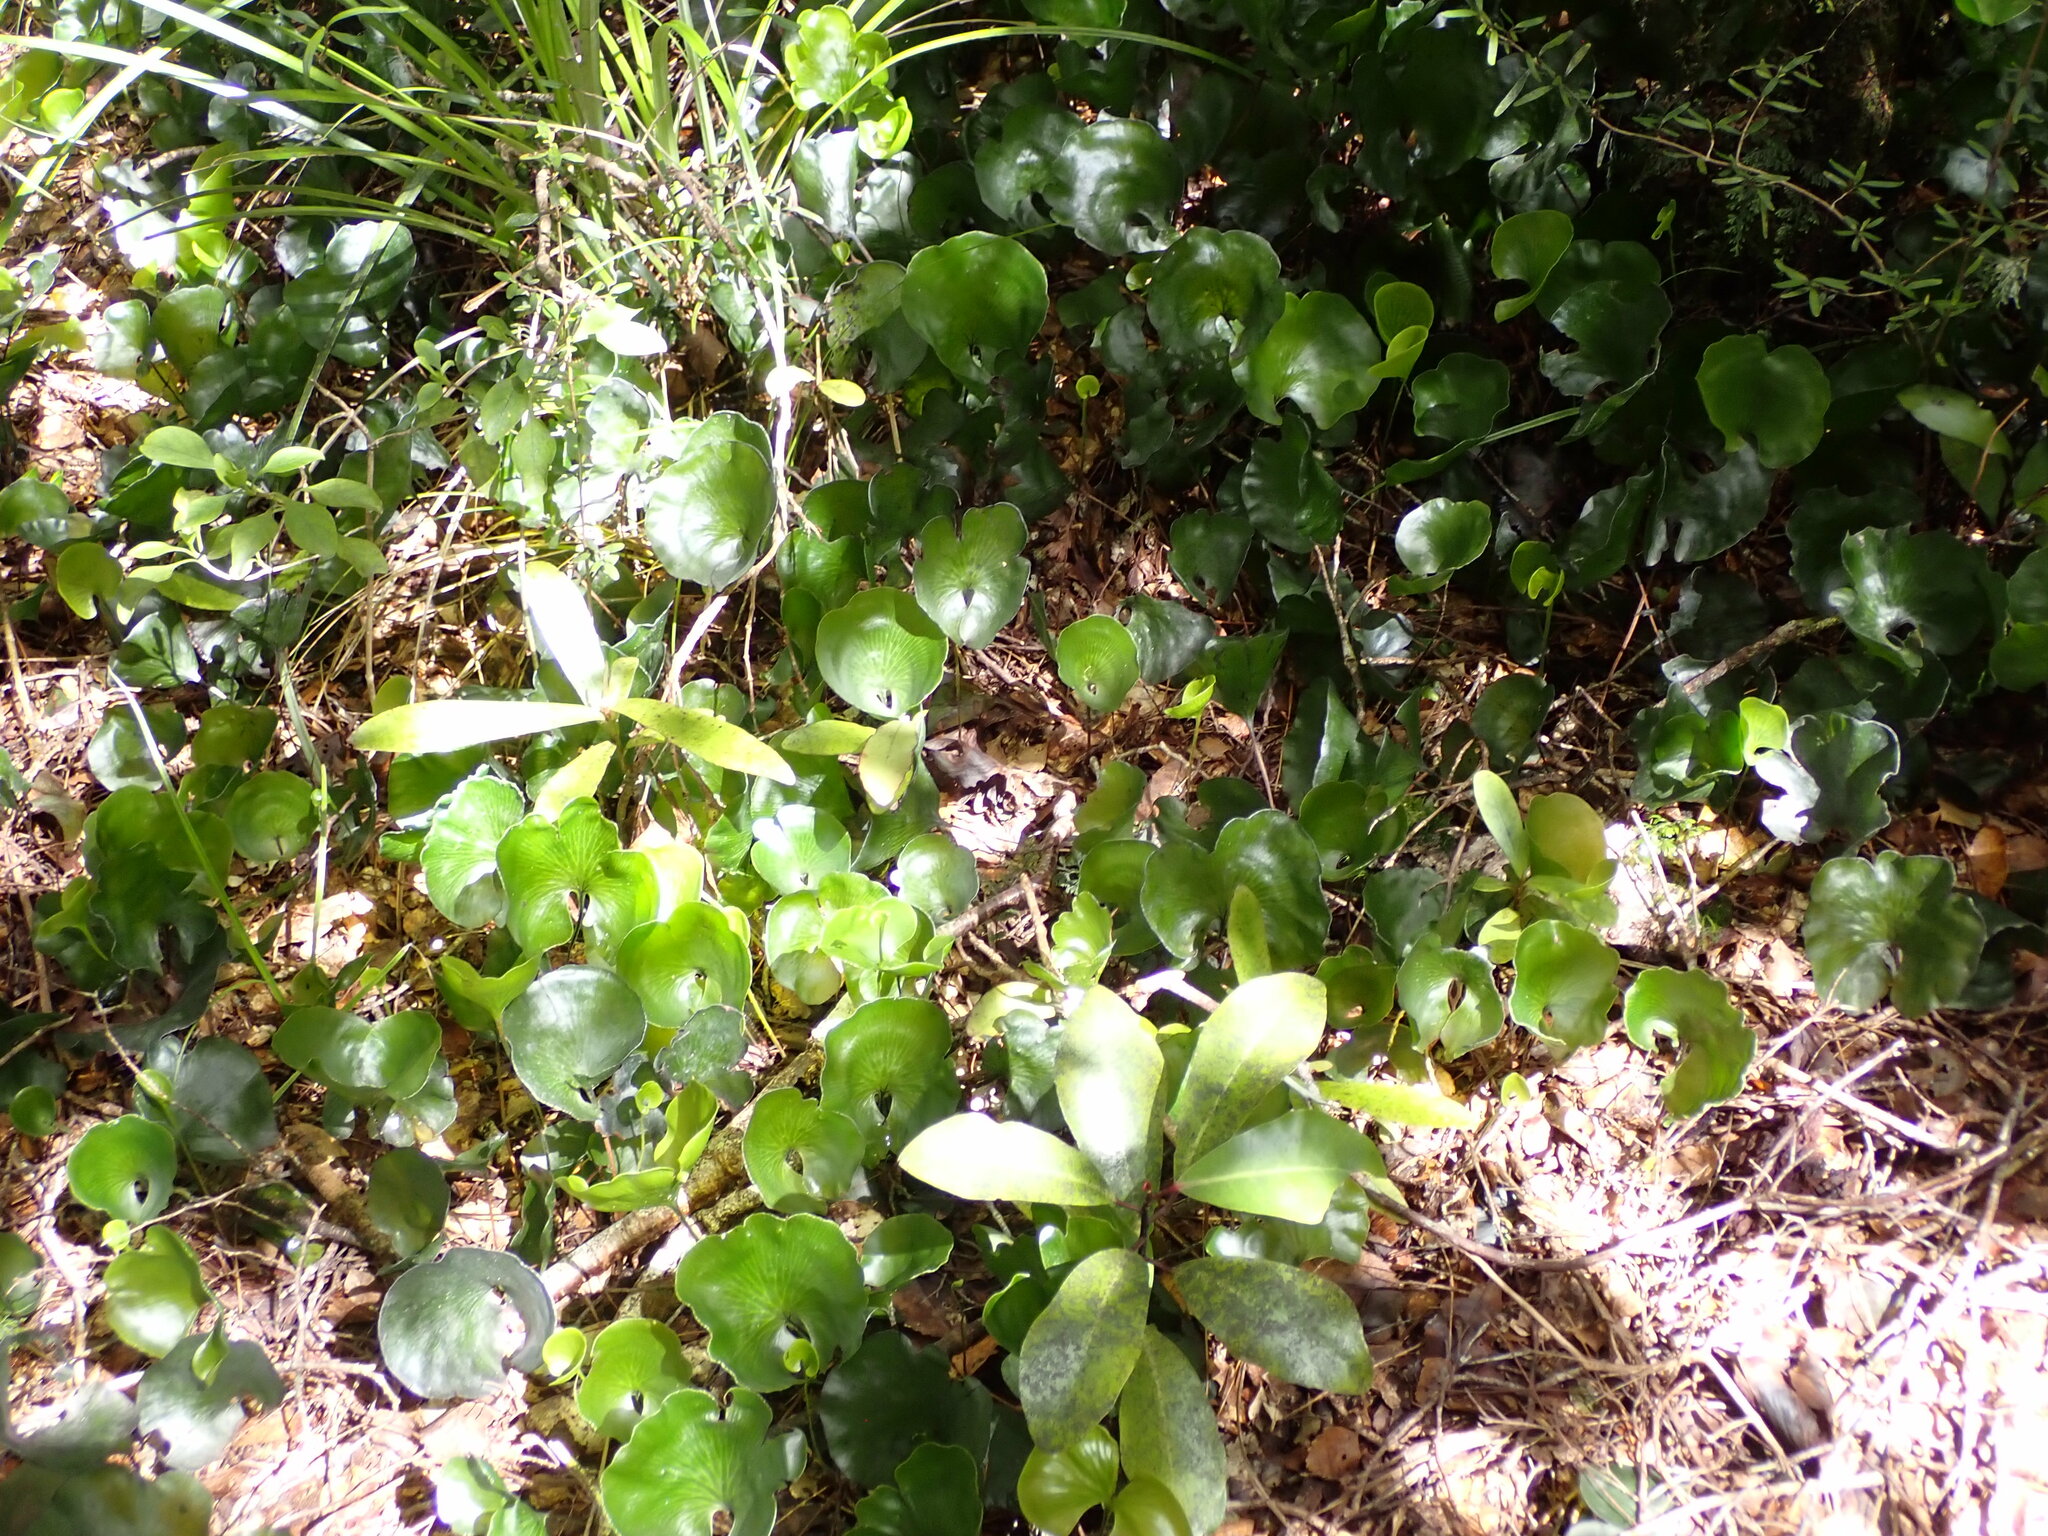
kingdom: Plantae
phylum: Tracheophyta
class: Polypodiopsida
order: Hymenophyllales
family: Hymenophyllaceae
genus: Hymenophyllum
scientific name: Hymenophyllum nephrophyllum
